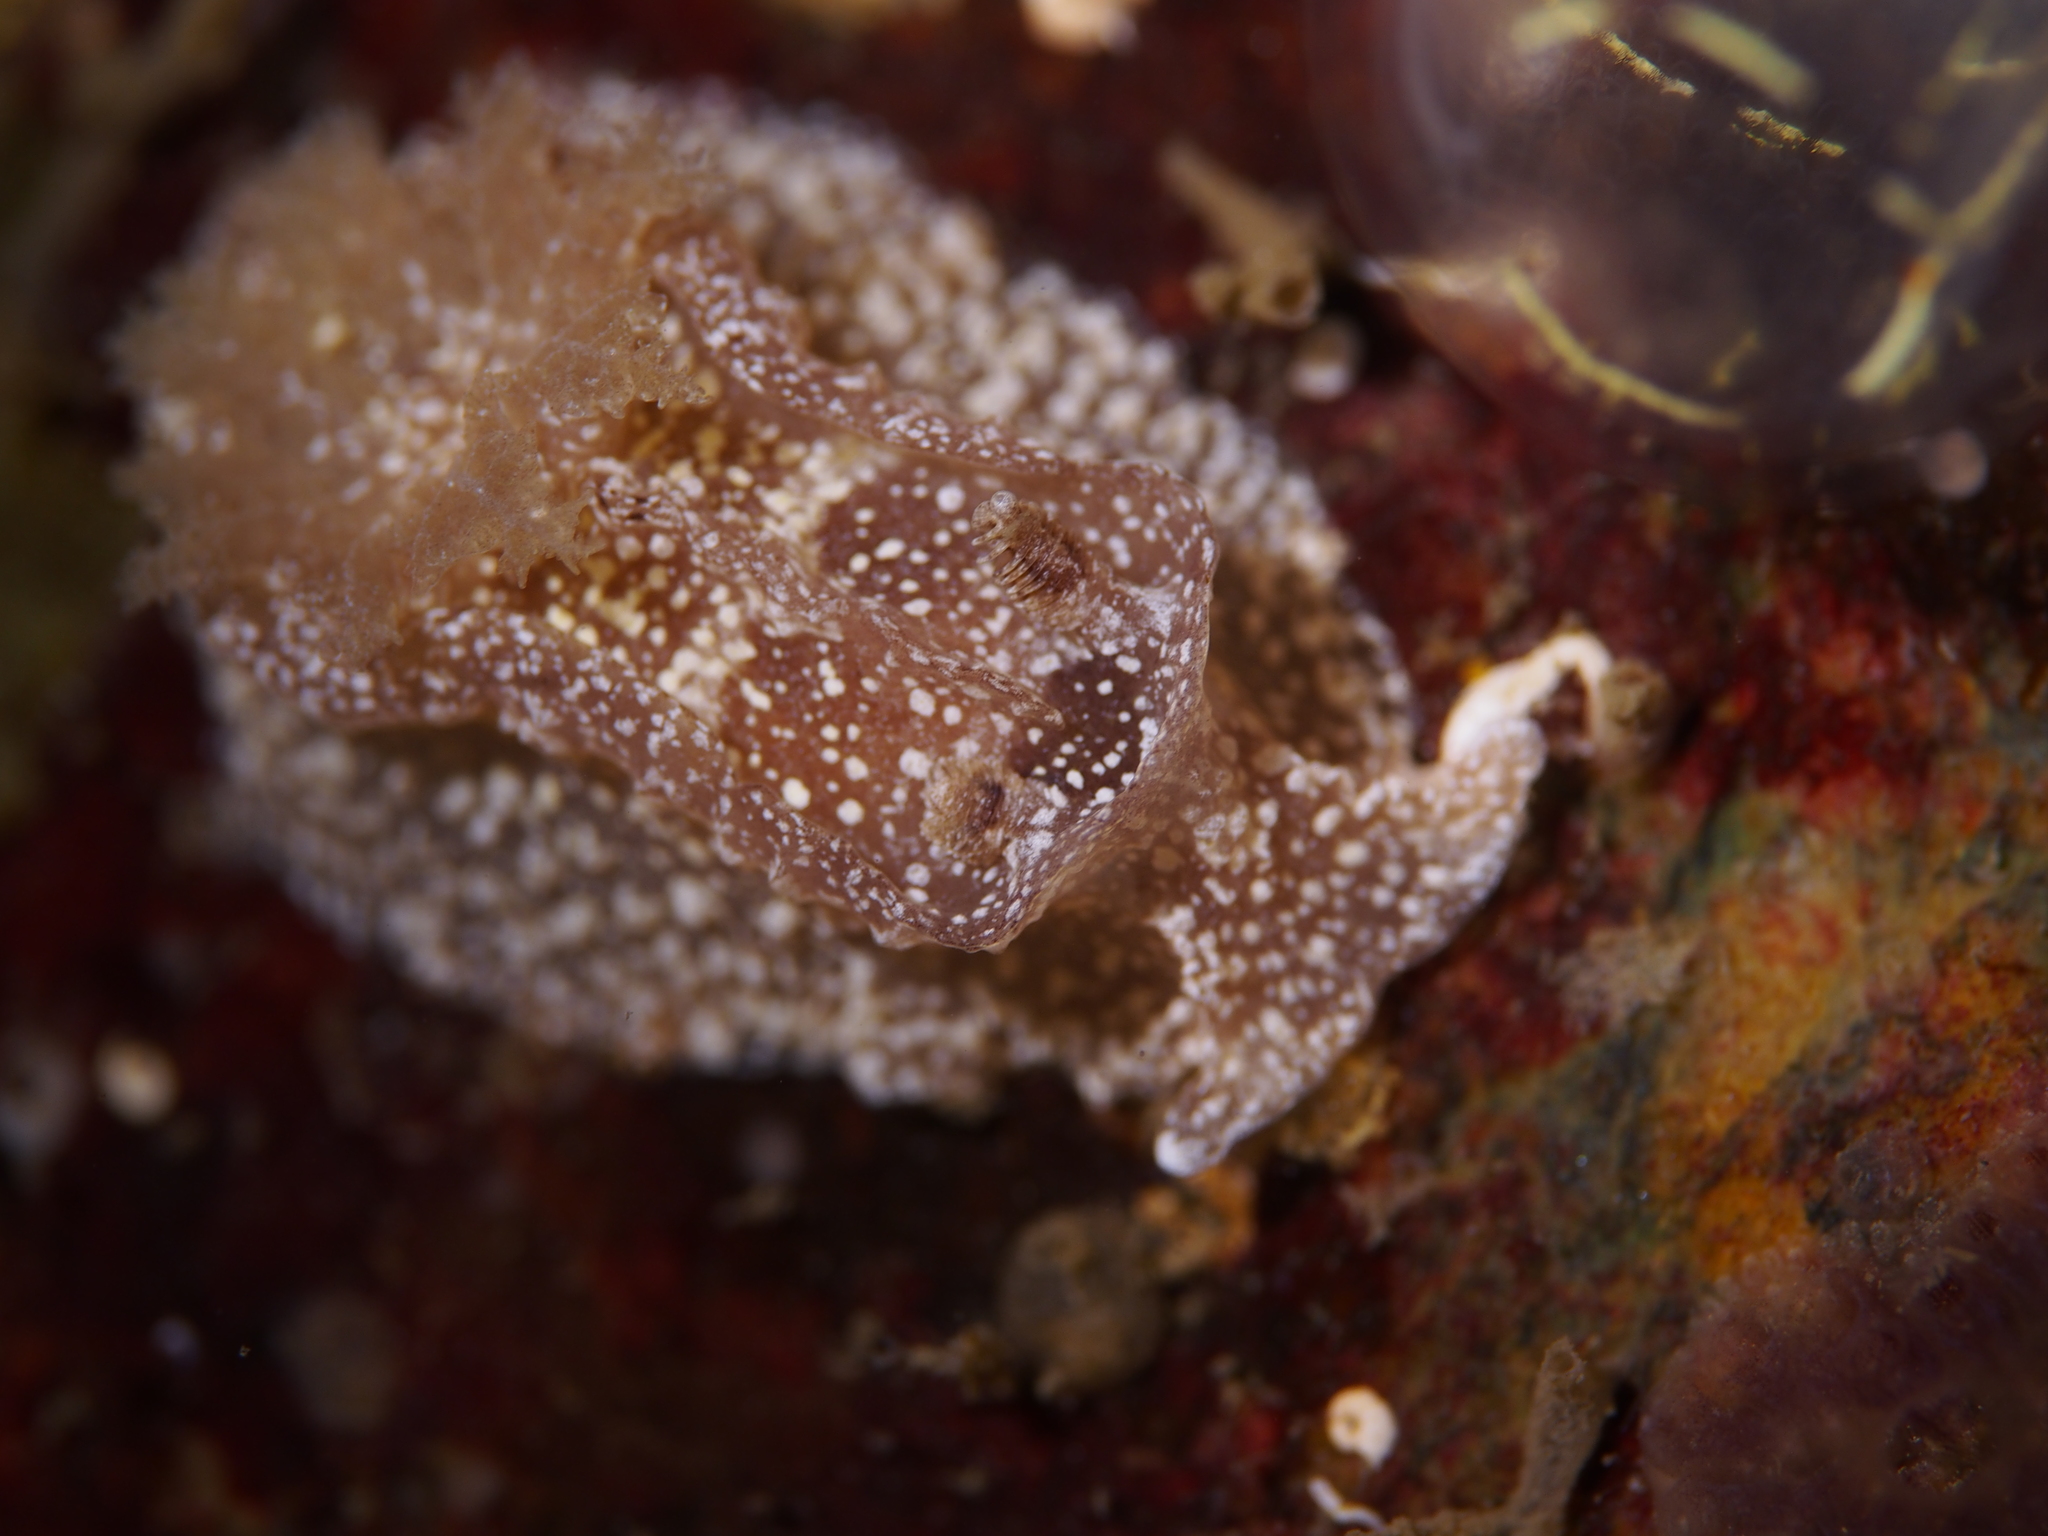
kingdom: Animalia
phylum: Mollusca
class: Gastropoda
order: Nudibranchia
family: Goniodorididae
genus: Pelagella
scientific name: Pelagella castanea
